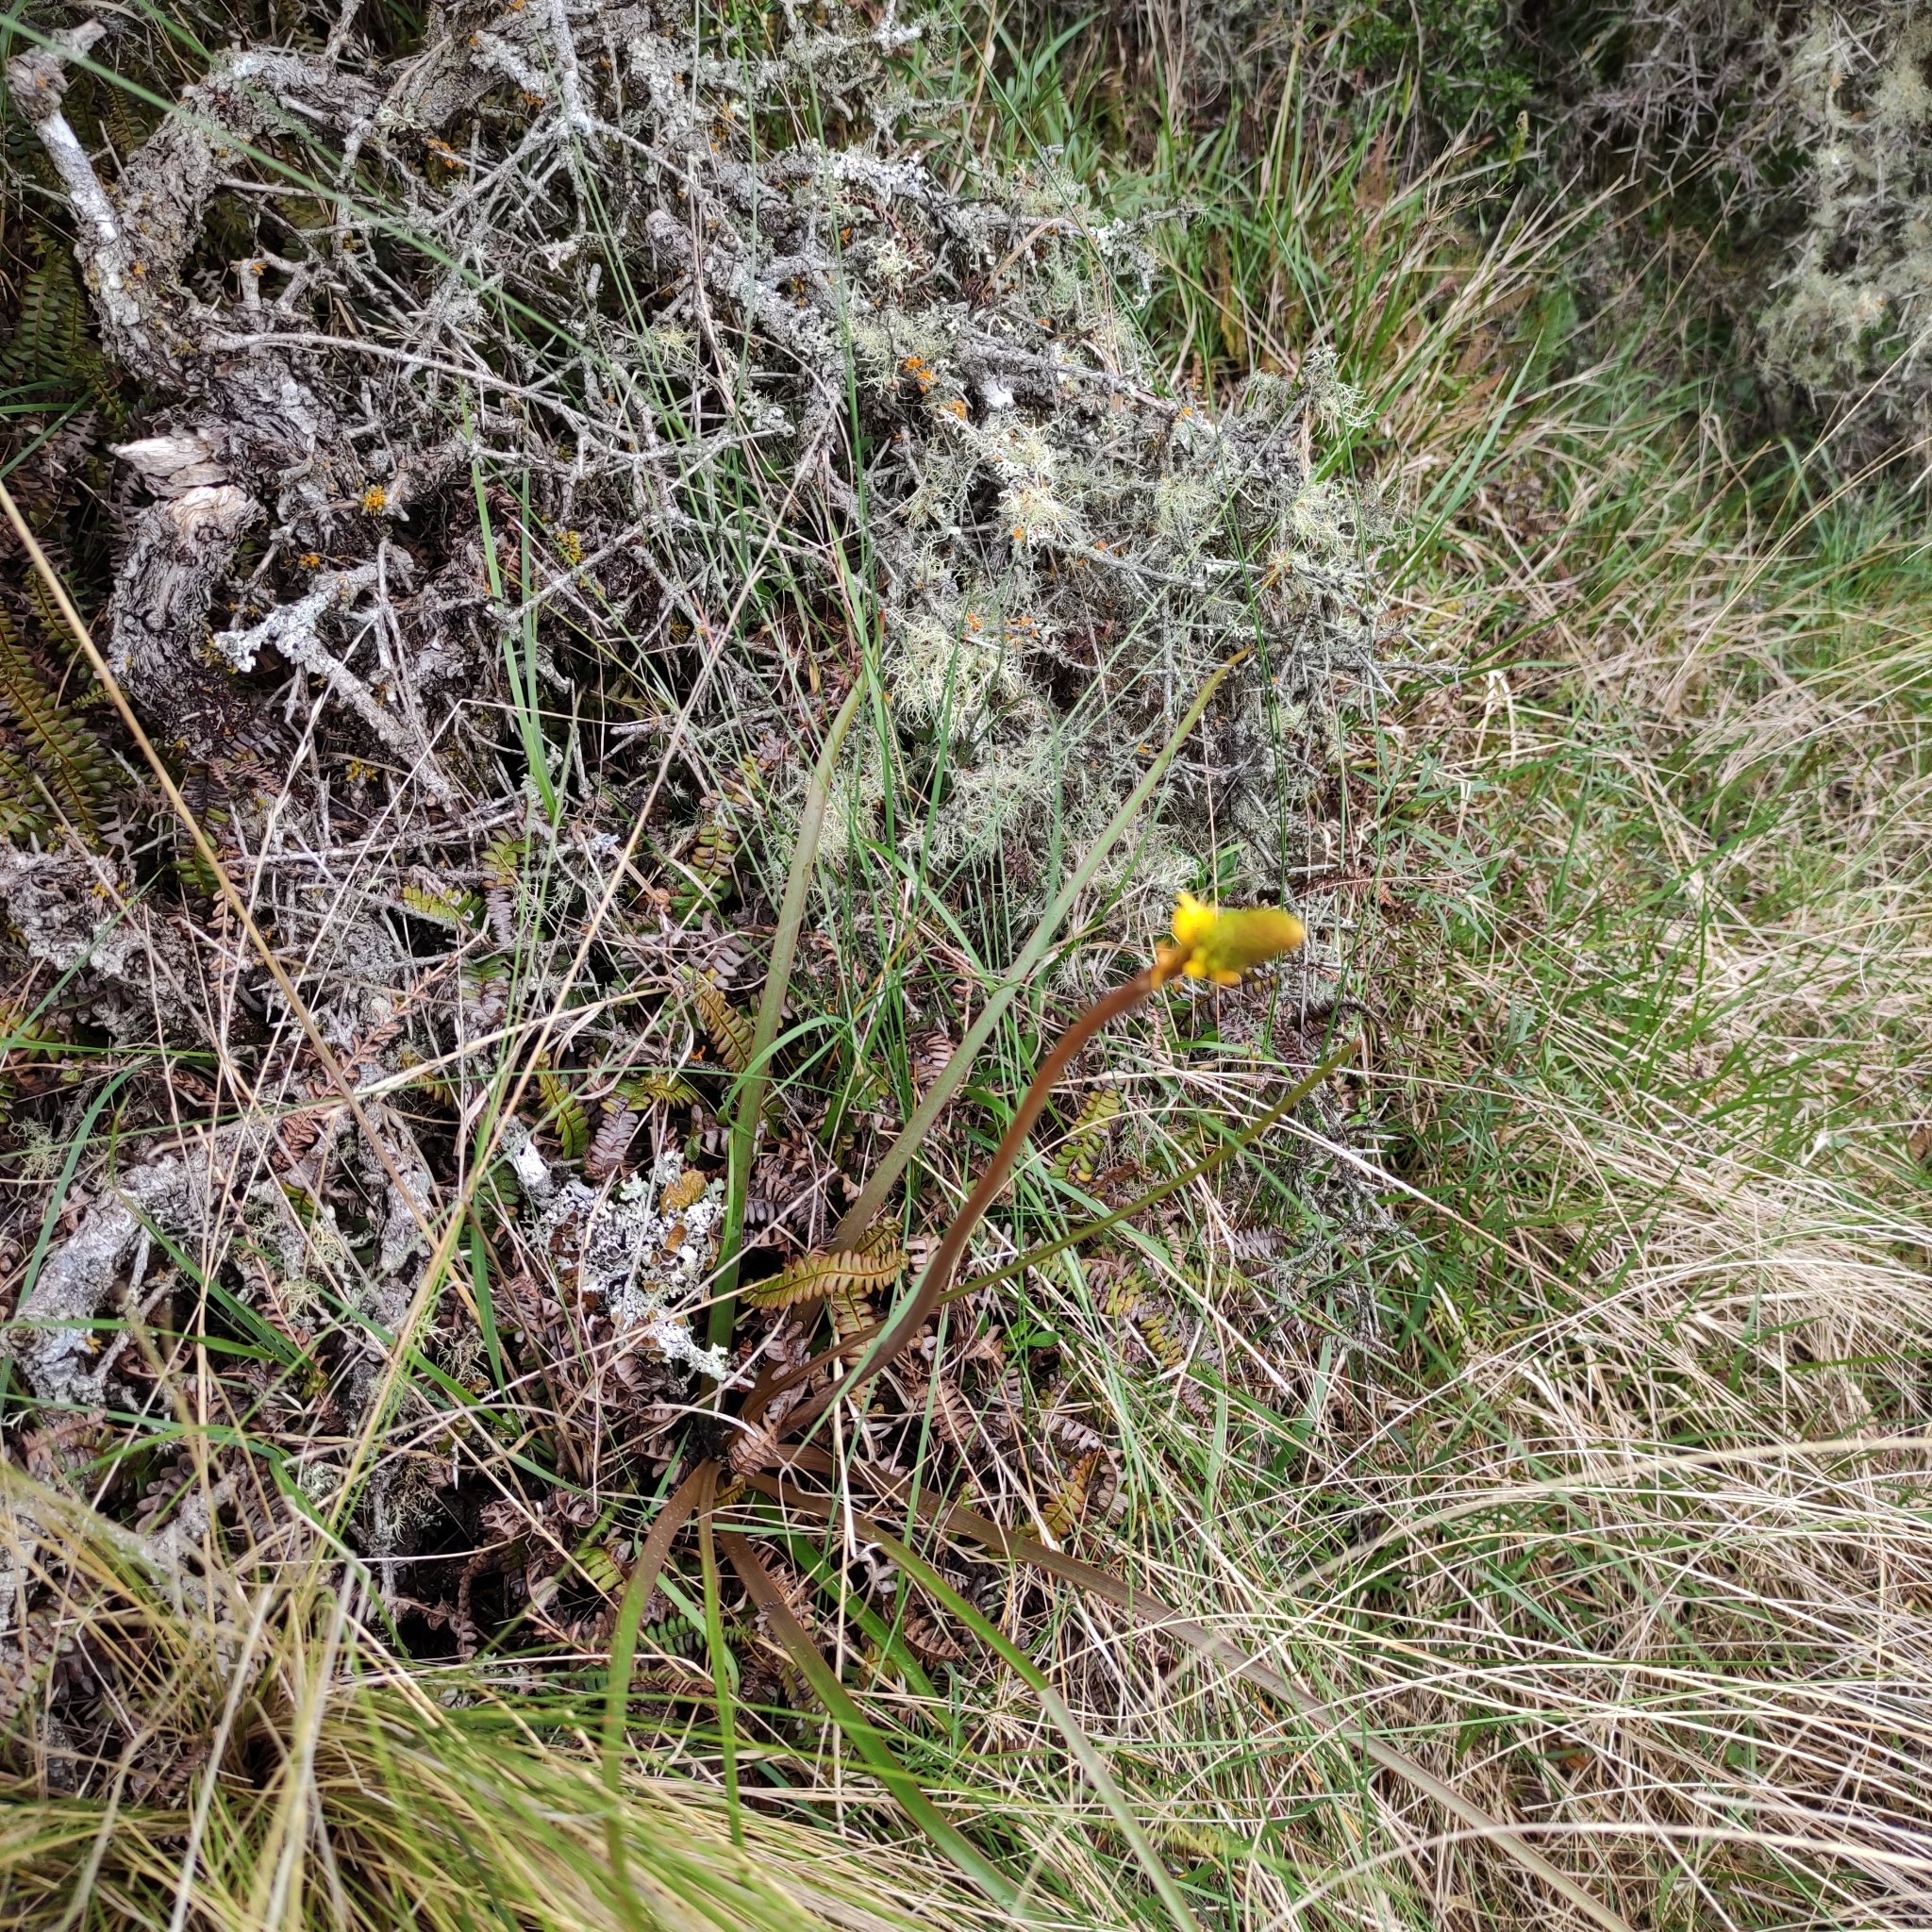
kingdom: Plantae
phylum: Tracheophyta
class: Liliopsida
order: Asparagales
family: Asphodelaceae
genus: Bulbinella
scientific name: Bulbinella angustifolia
